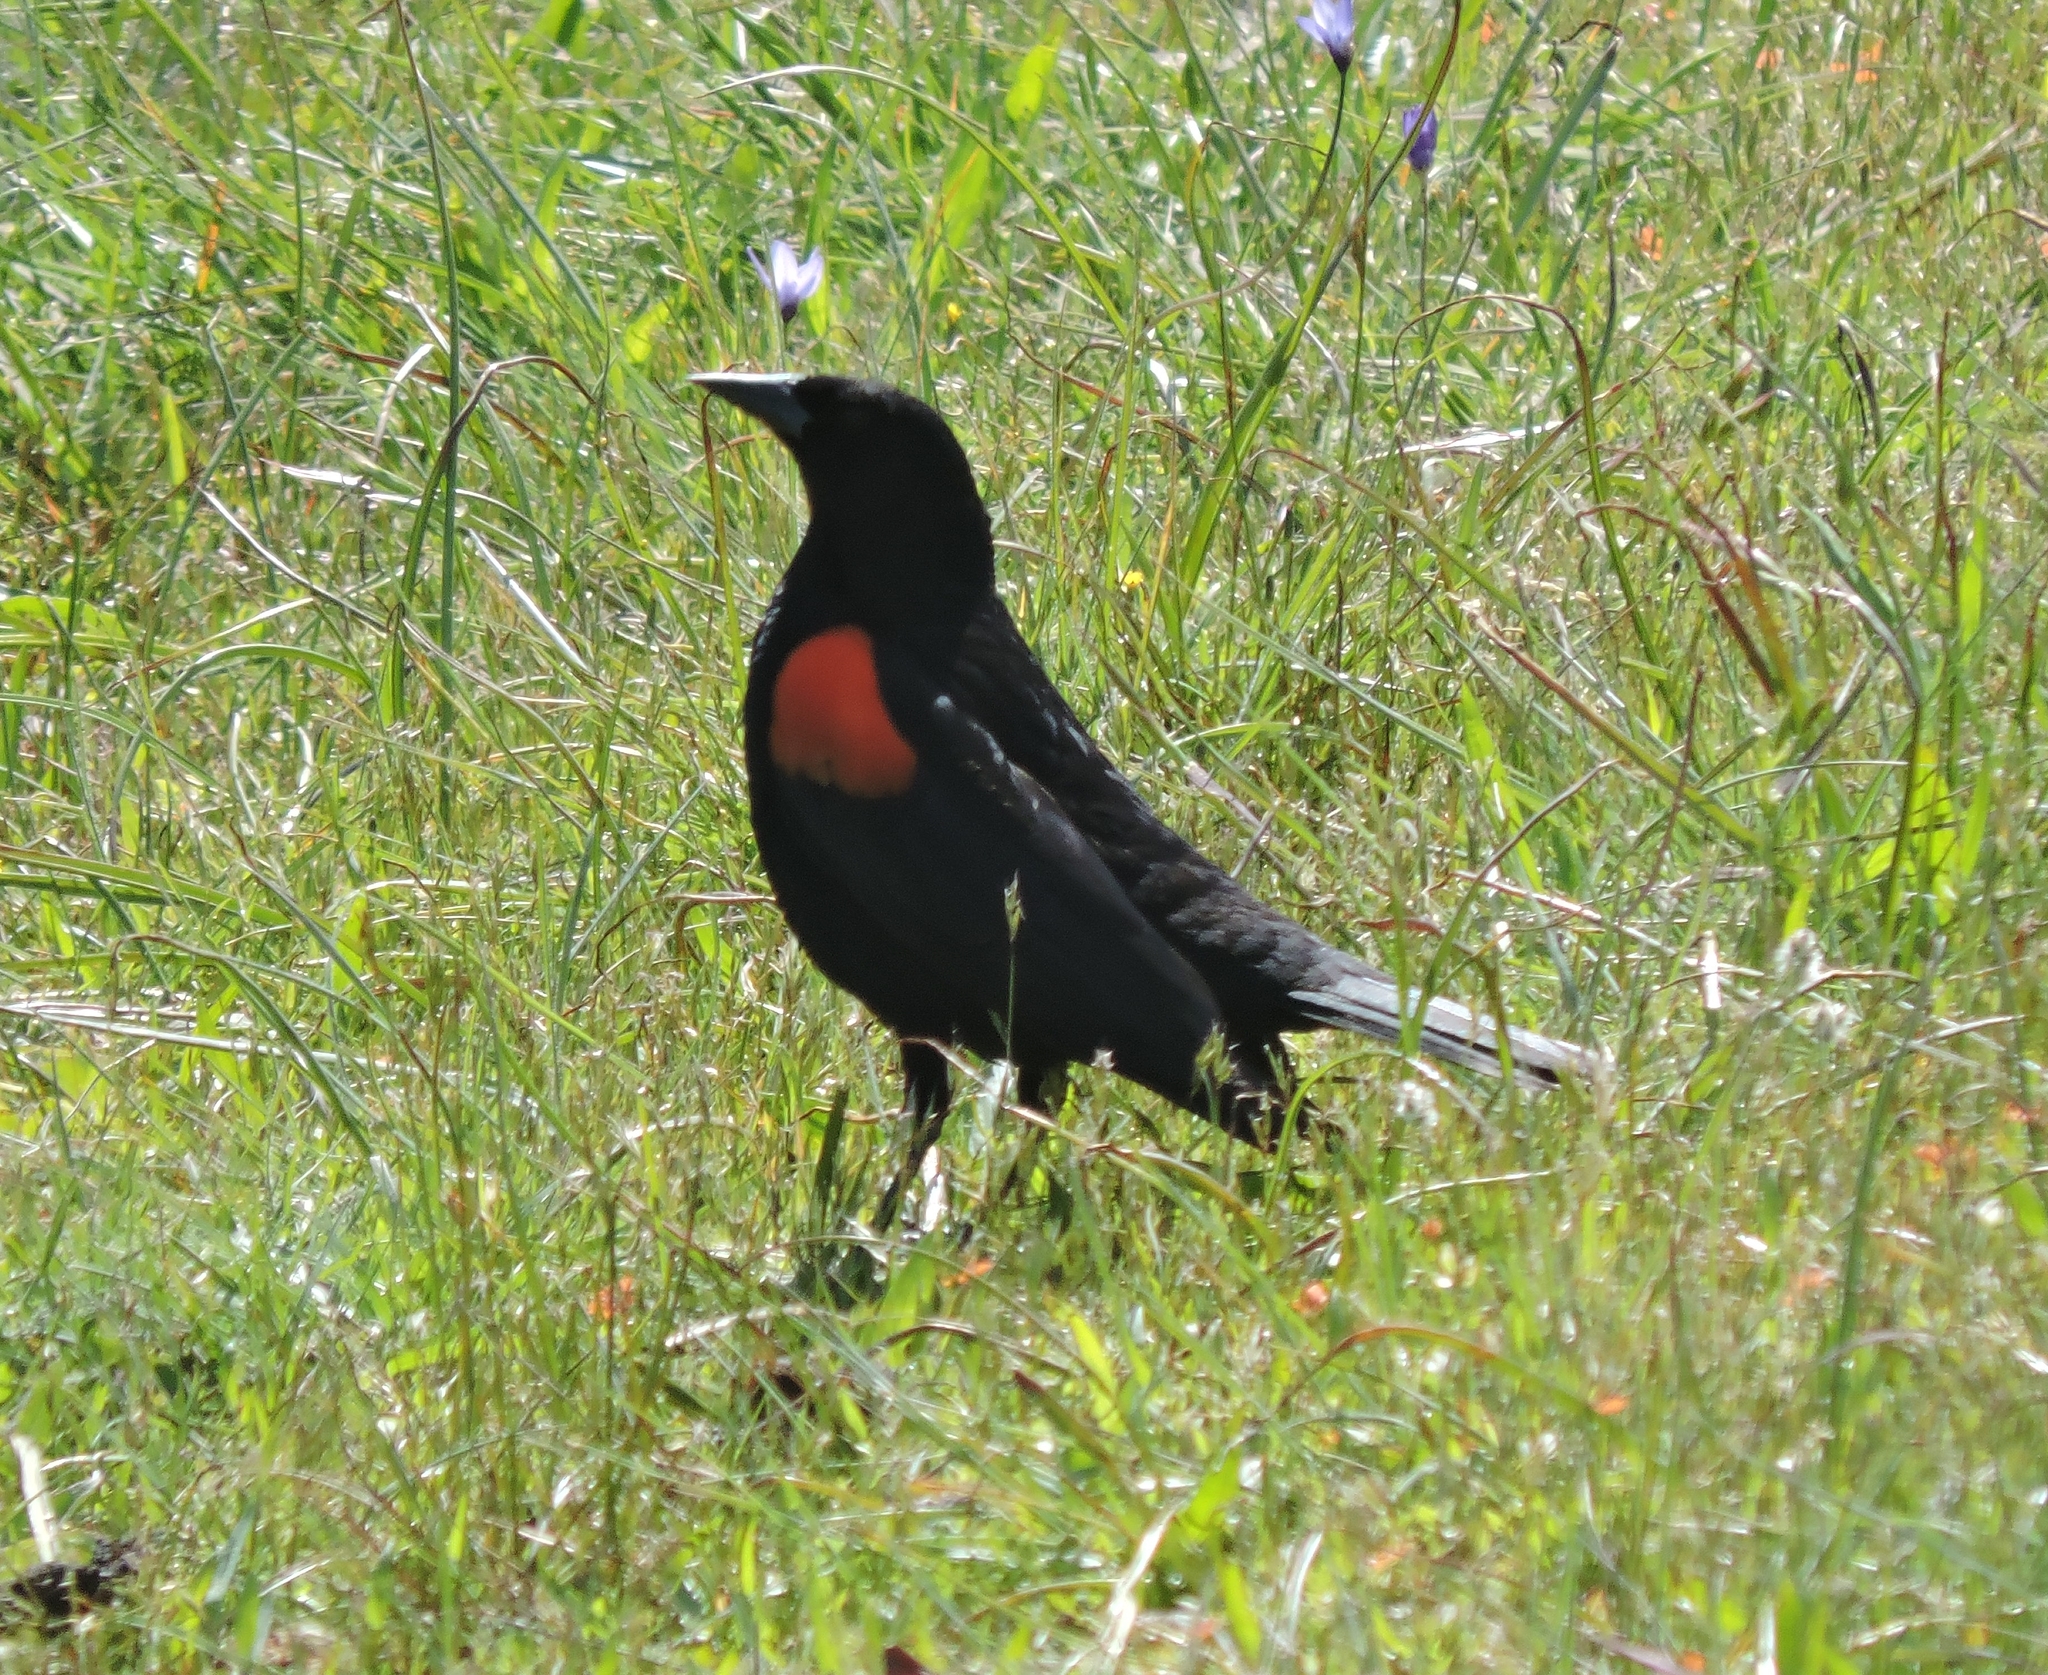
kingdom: Animalia
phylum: Chordata
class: Aves
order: Passeriformes
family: Icteridae
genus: Agelaius
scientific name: Agelaius phoeniceus
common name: Red-winged blackbird
